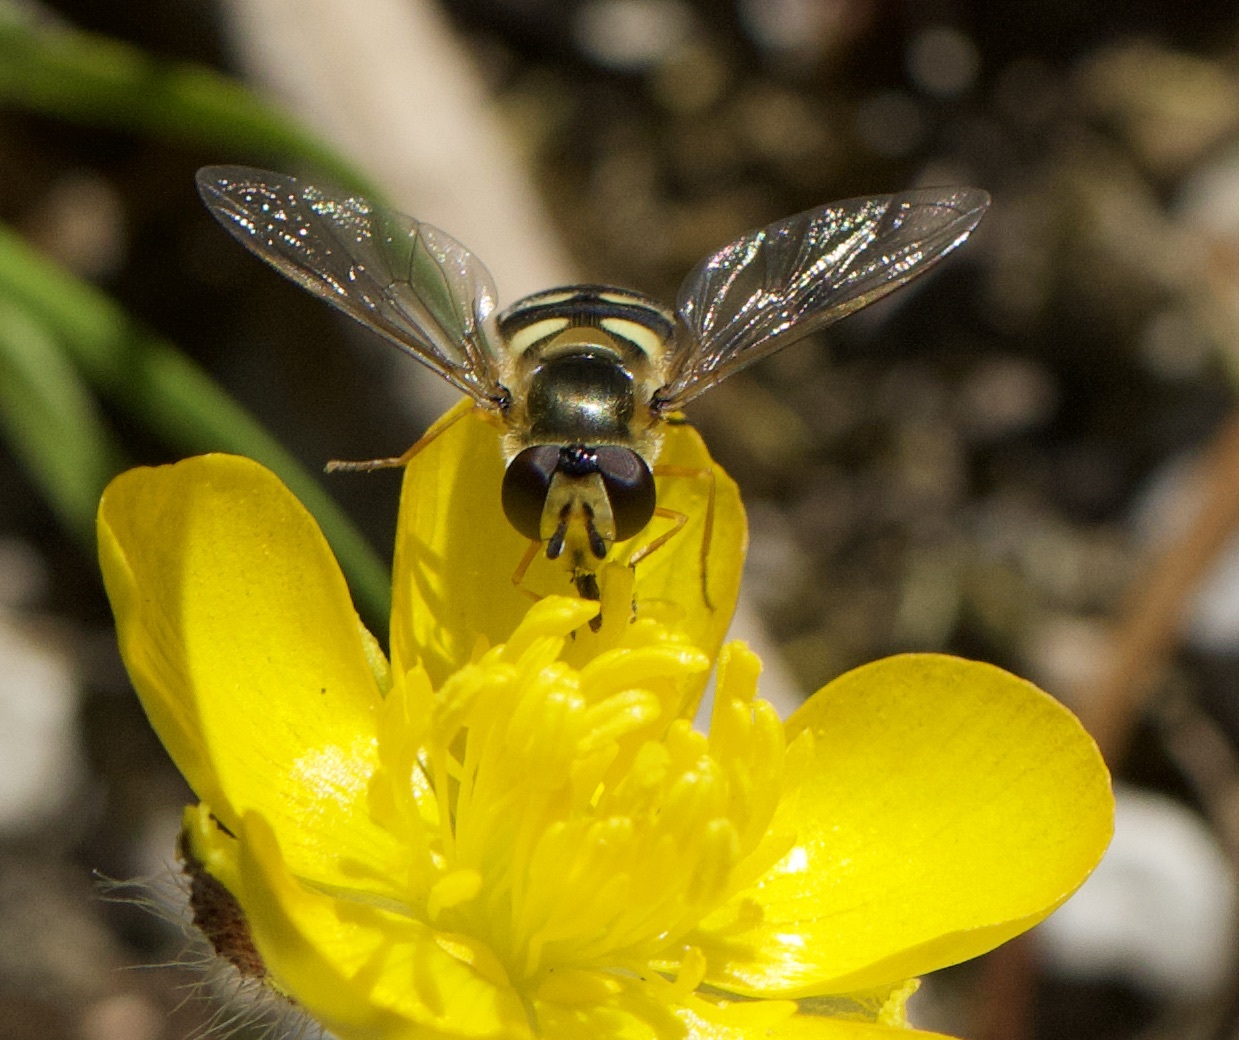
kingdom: Animalia
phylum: Arthropoda
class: Insecta
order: Diptera
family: Syrphidae
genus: Eupeodes
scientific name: Eupeodes corollae
